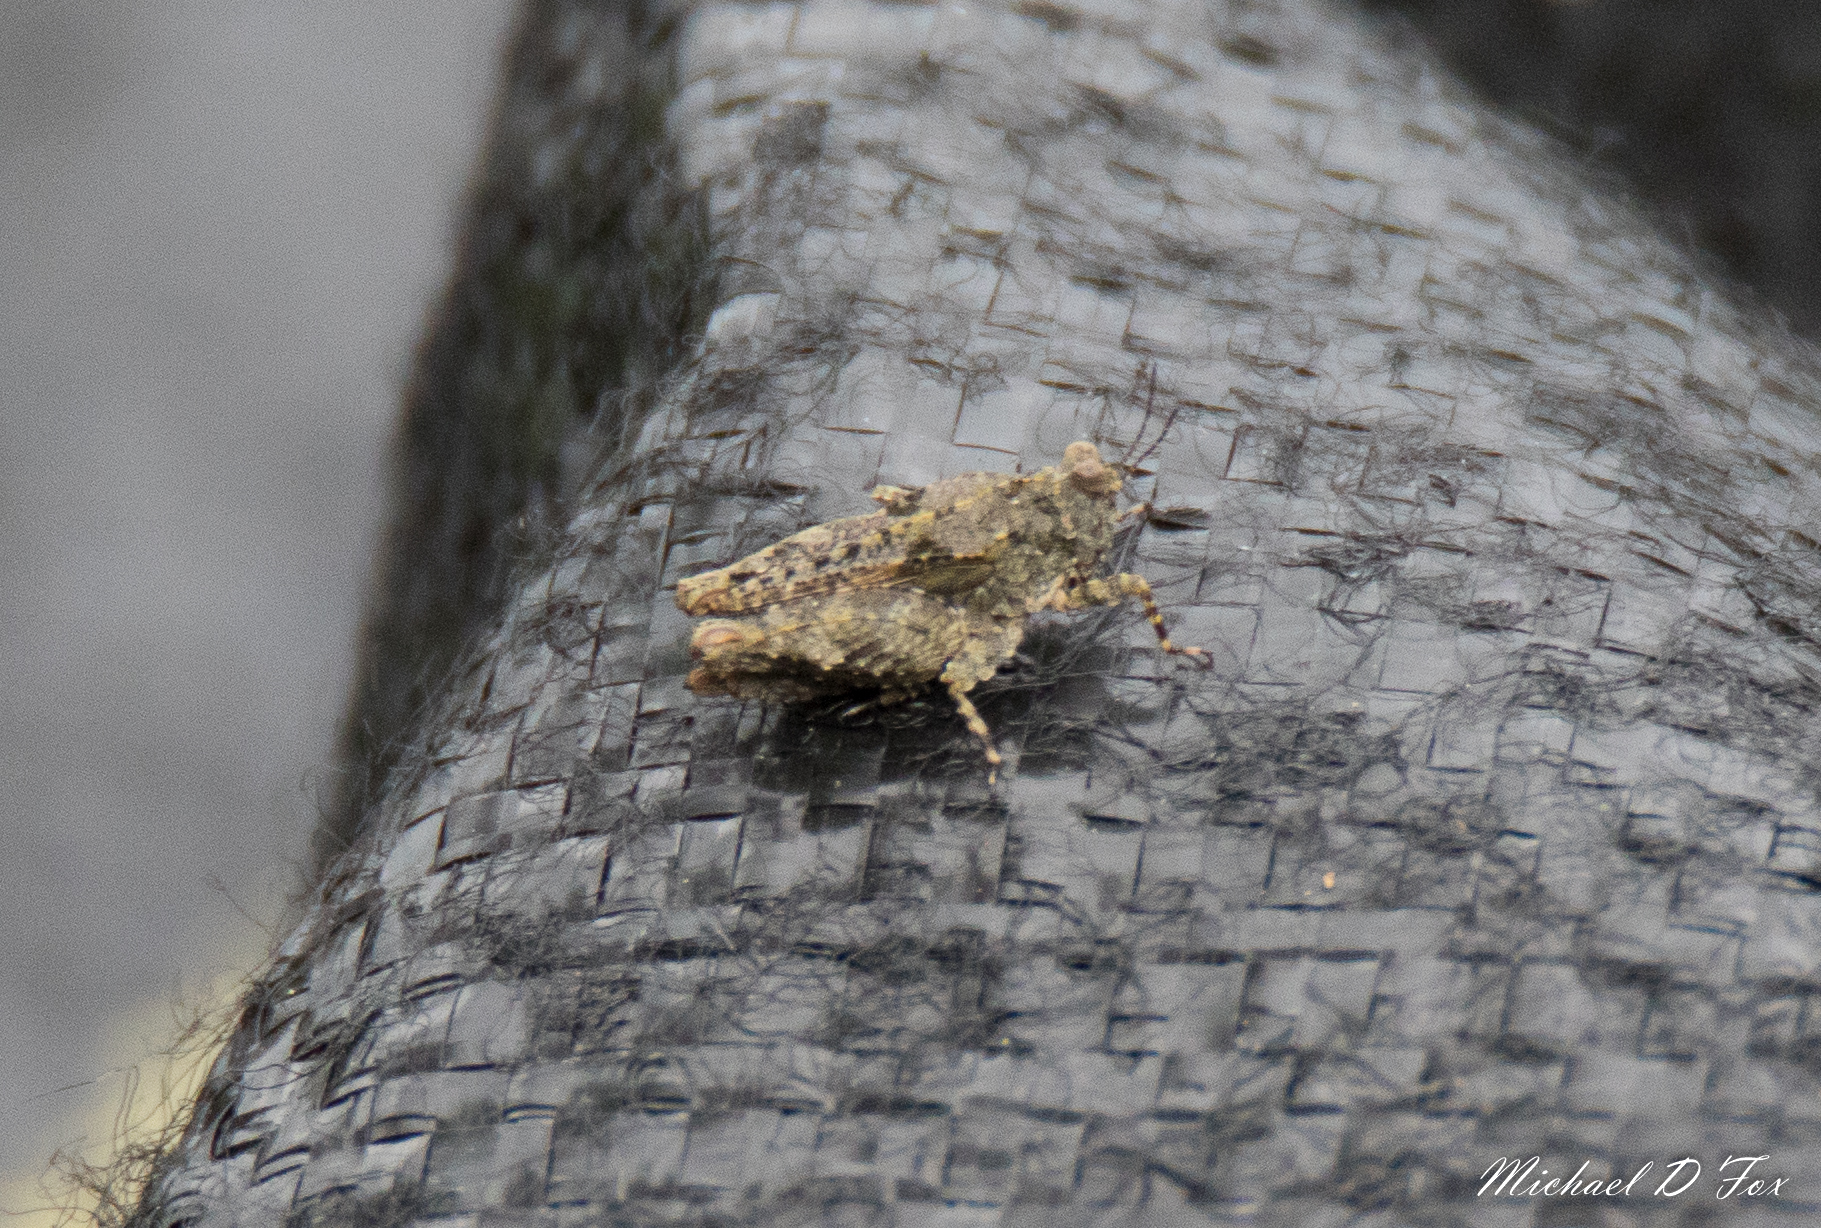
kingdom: Animalia
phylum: Arthropoda
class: Insecta
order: Orthoptera
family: Tetrigidae
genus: Paratettix
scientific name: Paratettix mexicanus
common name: Mexican pygmy grasshopper
